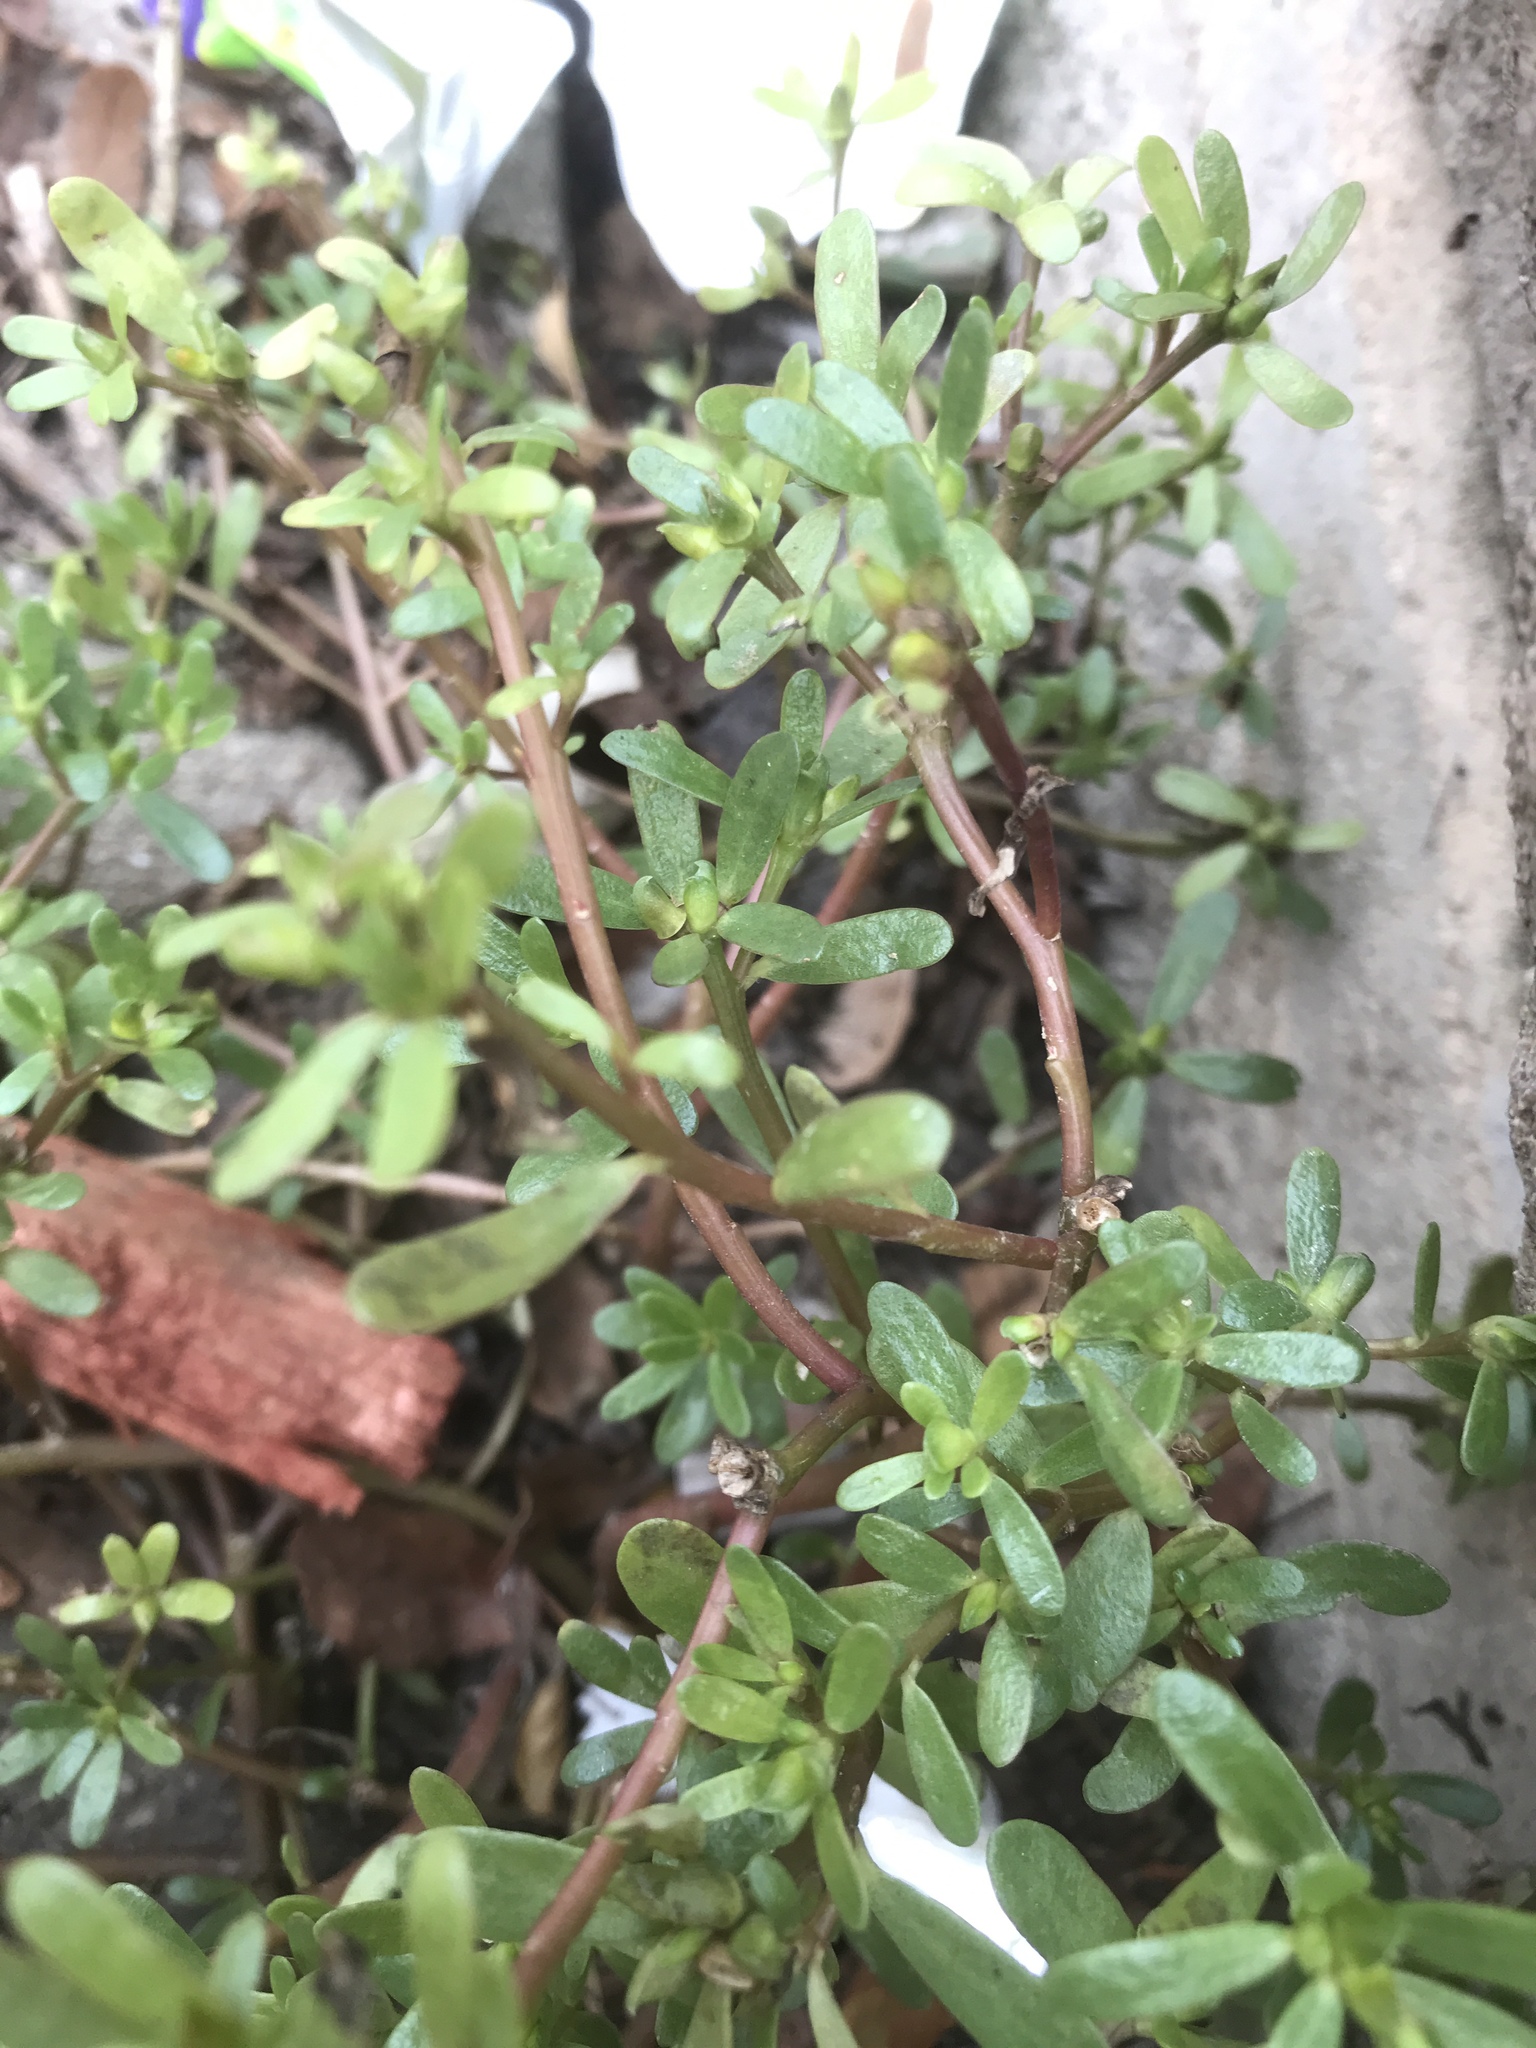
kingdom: Plantae
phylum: Tracheophyta
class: Magnoliopsida
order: Caryophyllales
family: Portulacaceae
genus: Portulaca
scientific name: Portulaca oleracea
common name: Common purslane
